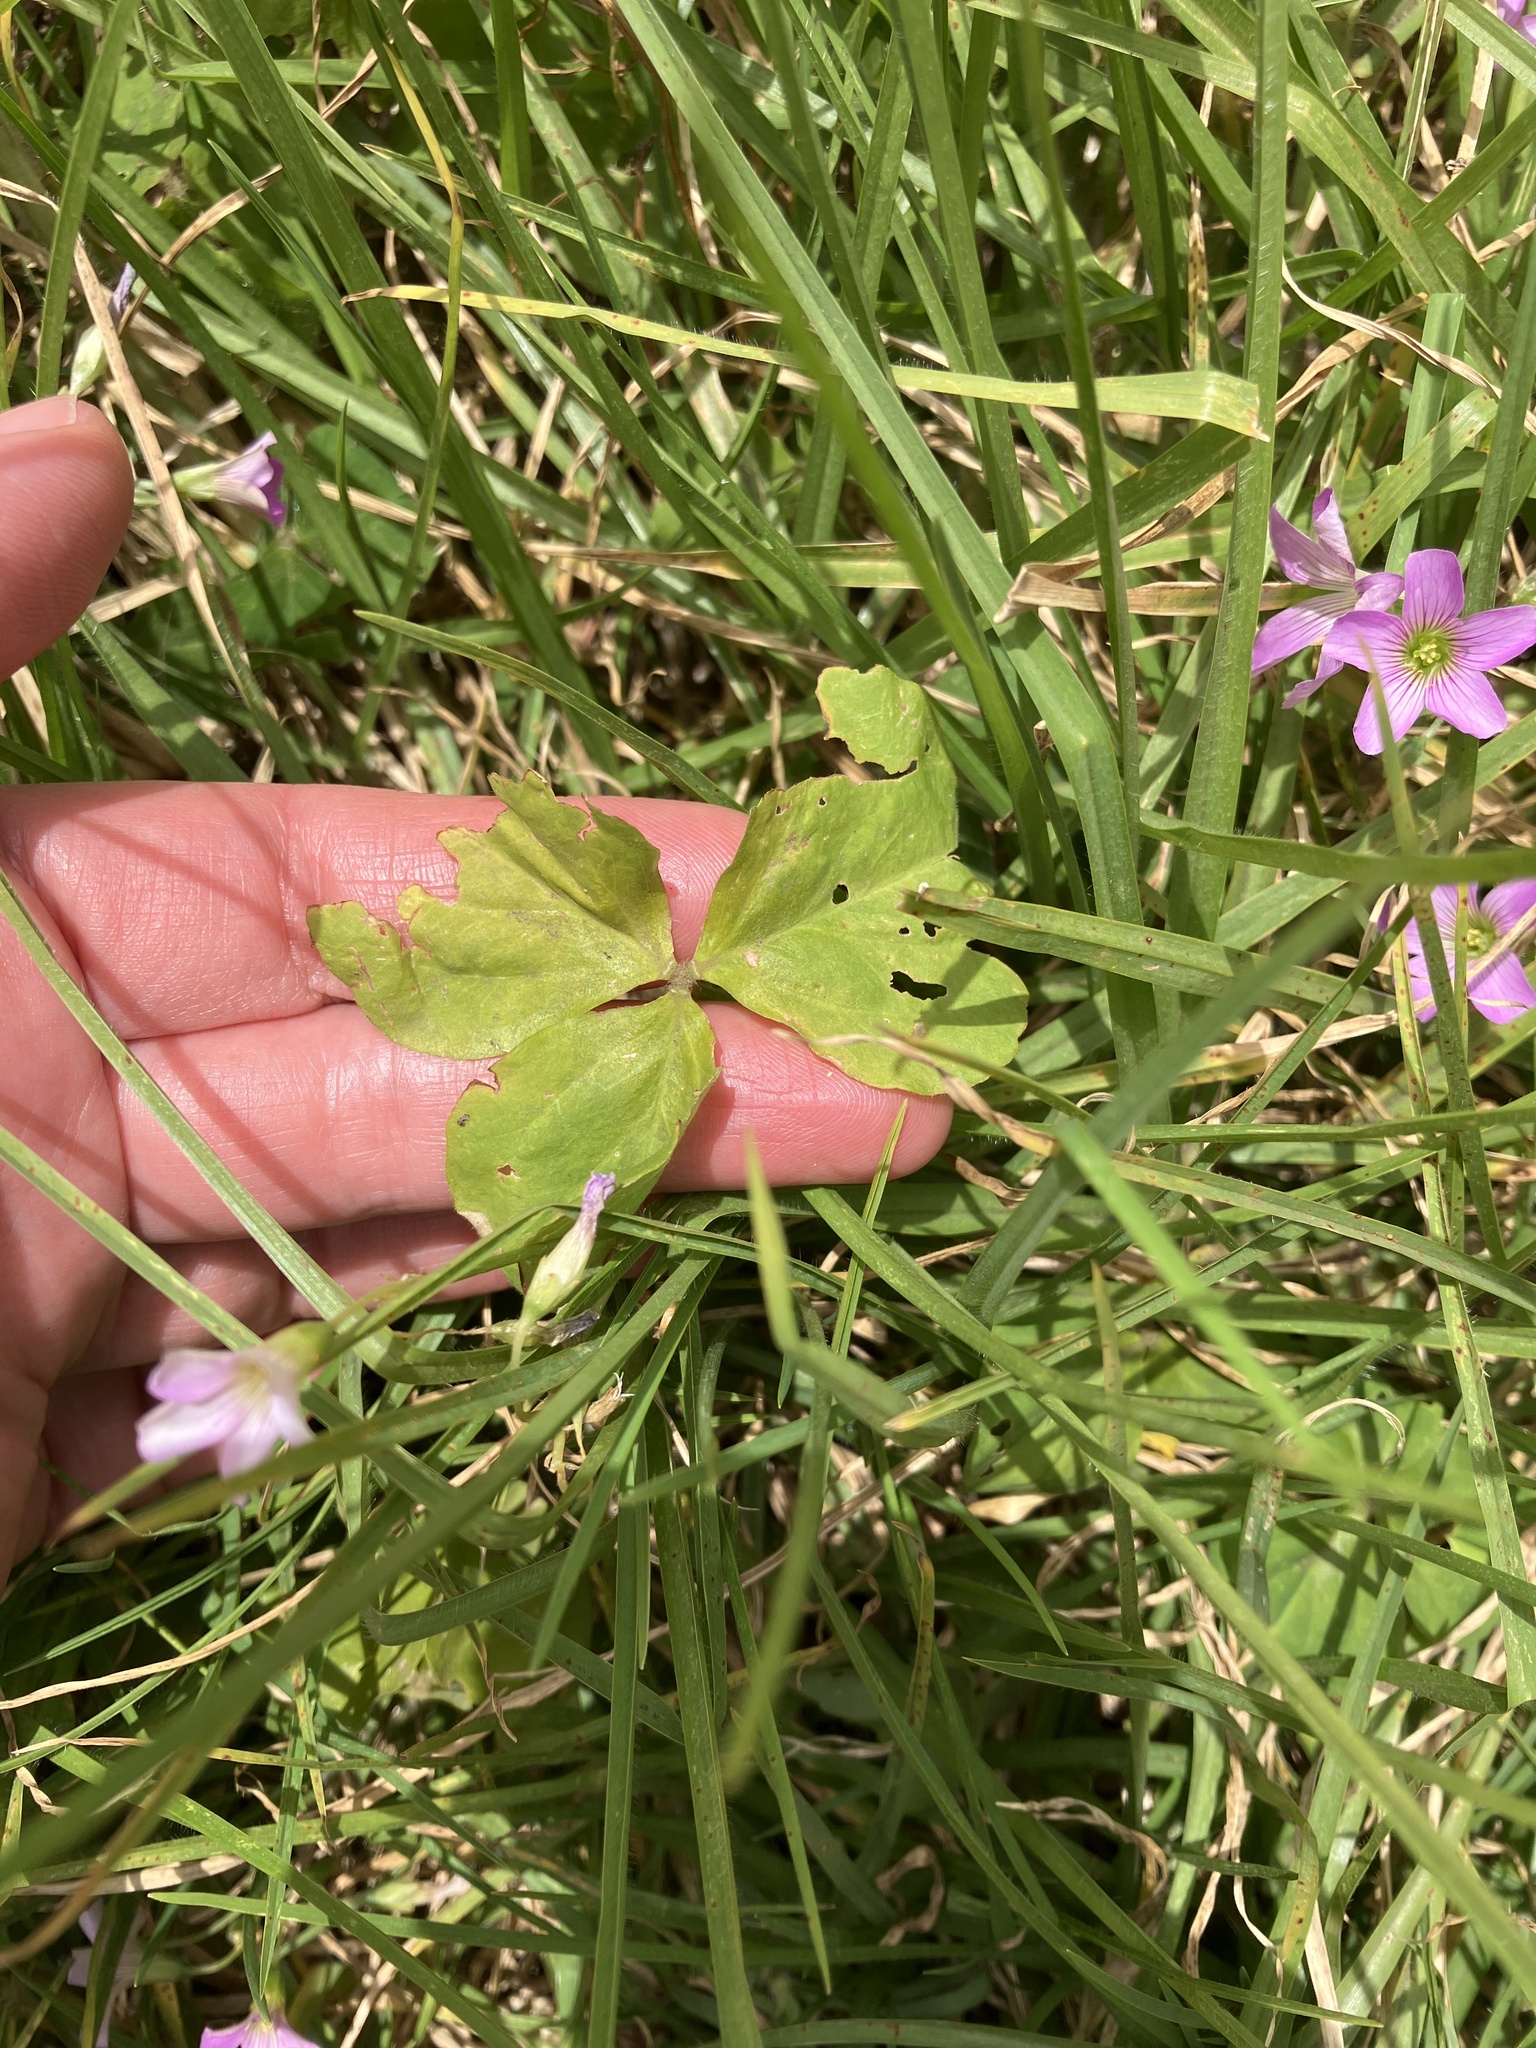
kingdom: Plantae
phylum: Tracheophyta
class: Magnoliopsida
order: Oxalidales
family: Oxalidaceae
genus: Oxalis
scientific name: Oxalis debilis
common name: Large-flowered pink-sorrel
